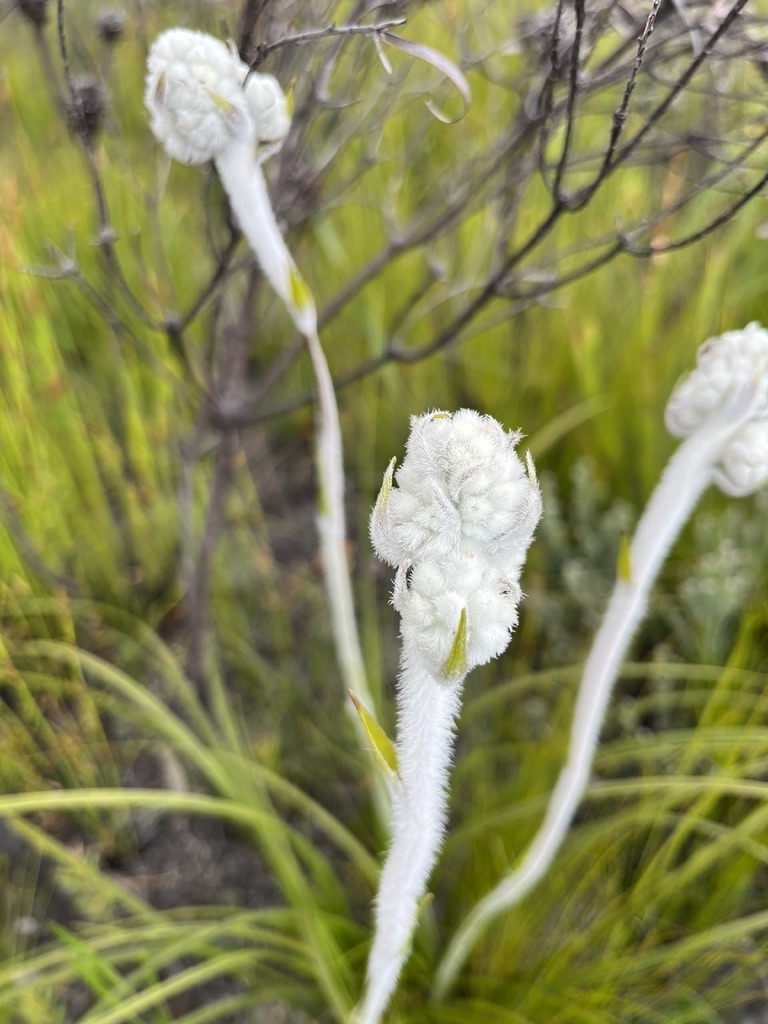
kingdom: Plantae
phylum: Tracheophyta
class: Liliopsida
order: Asparagales
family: Lanariaceae
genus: Lanaria
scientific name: Lanaria lanata
